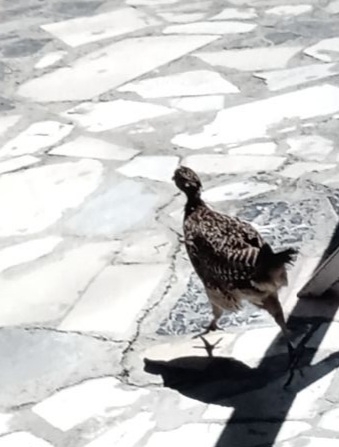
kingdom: Animalia
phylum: Chordata
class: Aves
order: Galliformes
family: Phasianidae
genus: Phasianus
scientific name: Phasianus colchicus
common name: Common pheasant
